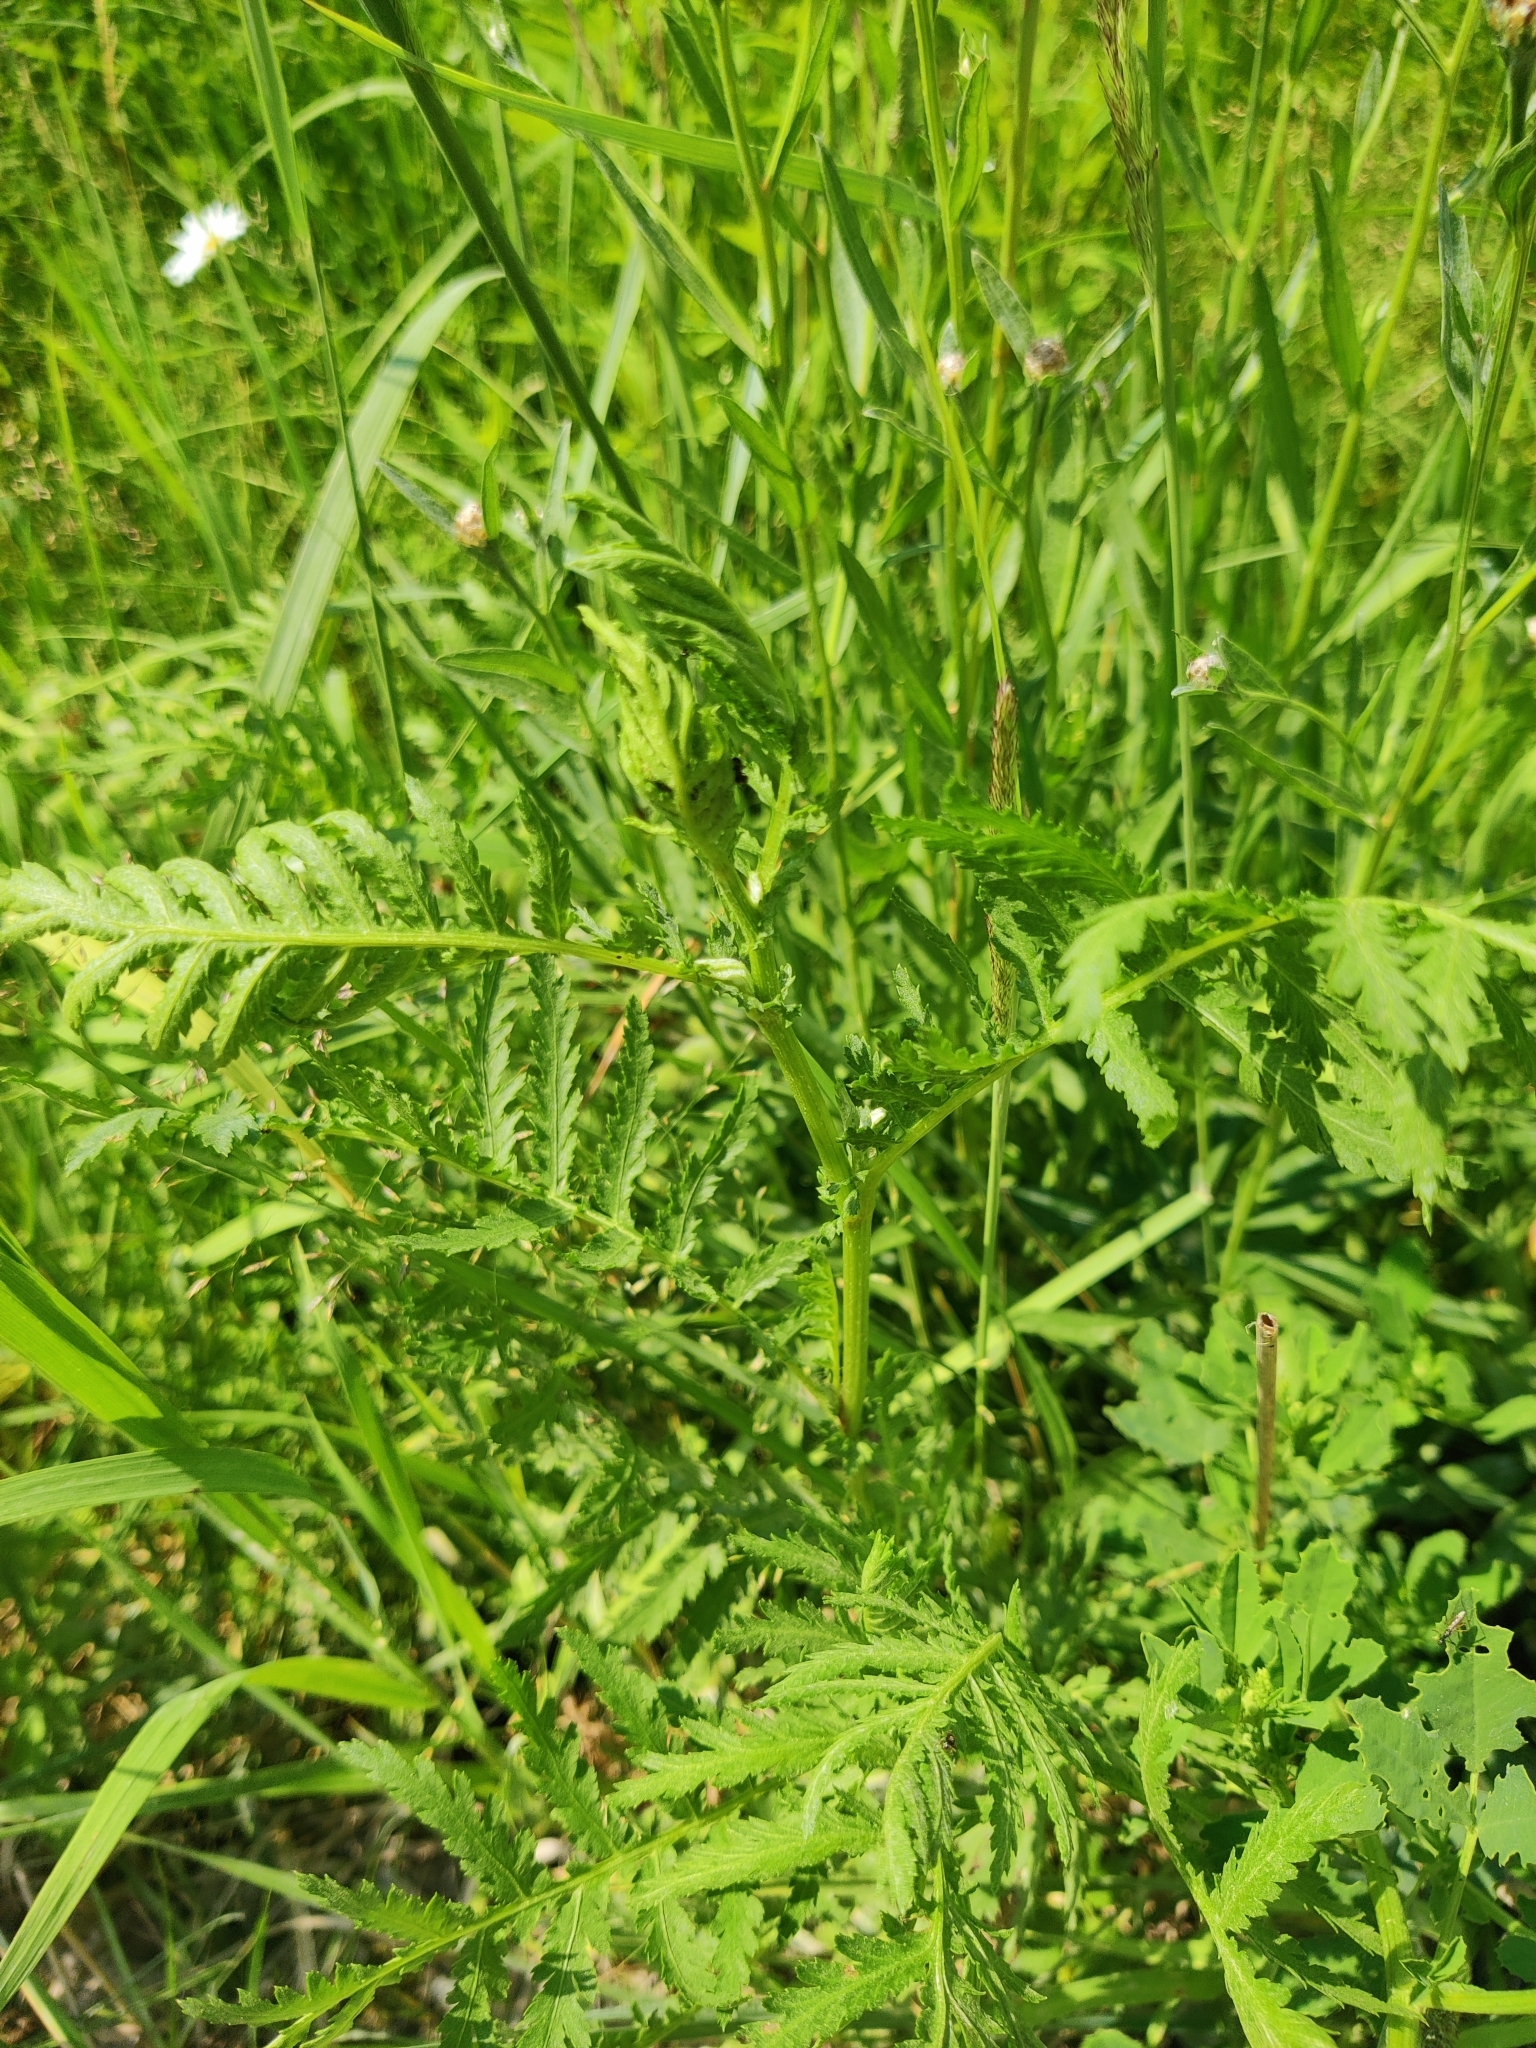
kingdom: Plantae
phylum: Tracheophyta
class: Magnoliopsida
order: Asterales
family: Asteraceae
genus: Tanacetum
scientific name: Tanacetum vulgare
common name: Common tansy
